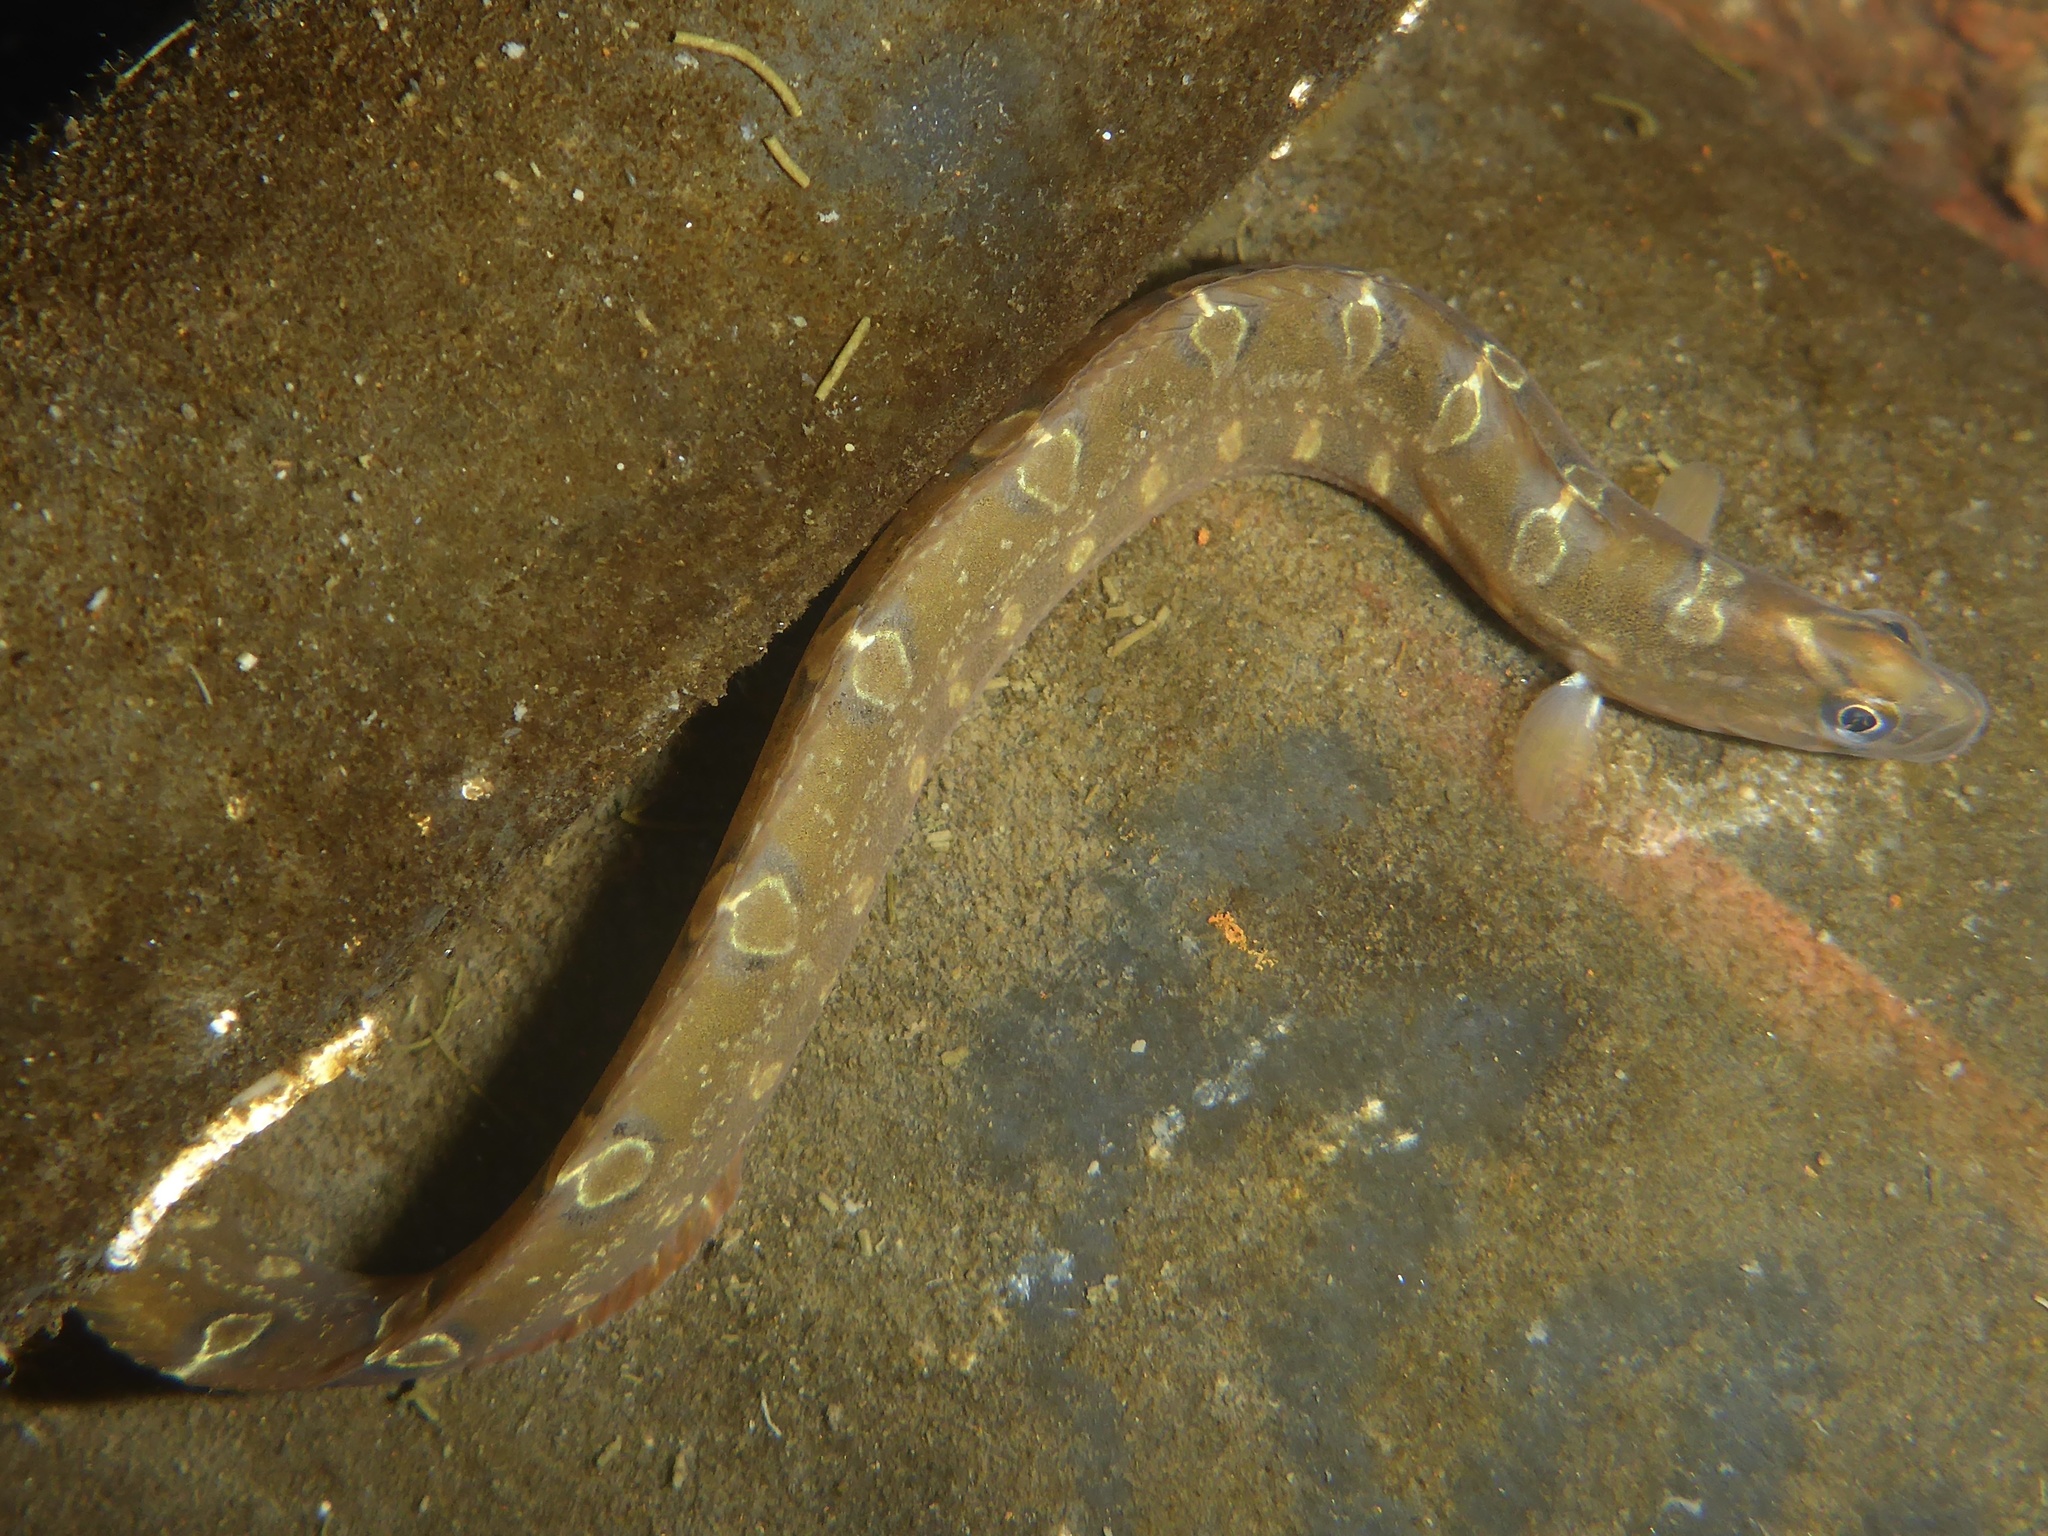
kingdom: Animalia
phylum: Chordata
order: Perciformes
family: Pholidae
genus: Pholis
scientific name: Pholis laeta
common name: Crescent gunnel
